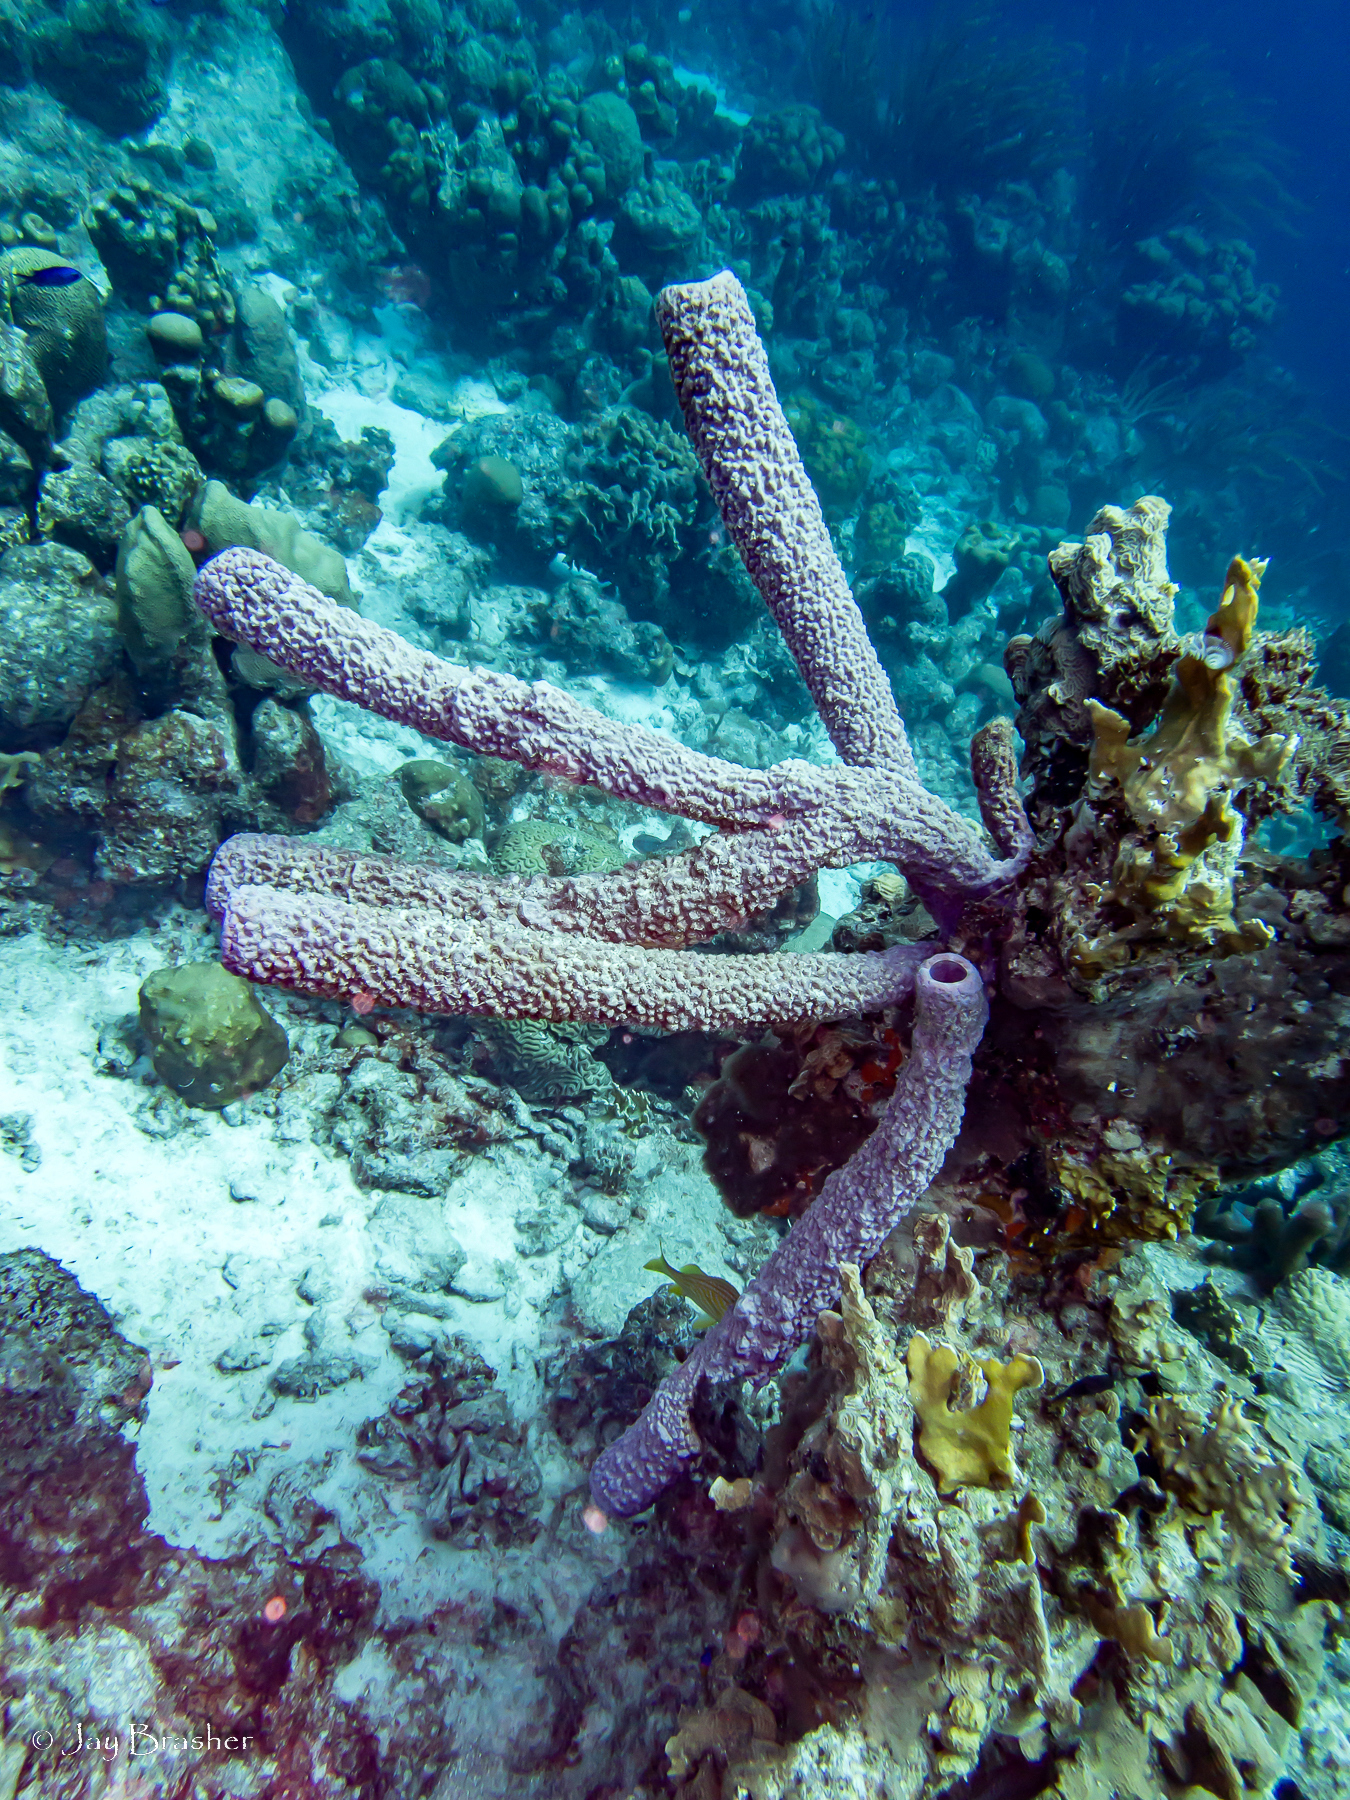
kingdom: Animalia
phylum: Porifera
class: Demospongiae
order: Verongiida
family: Aplysinidae
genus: Aplysina
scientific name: Aplysina archeri
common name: Stove-pipe sponge
